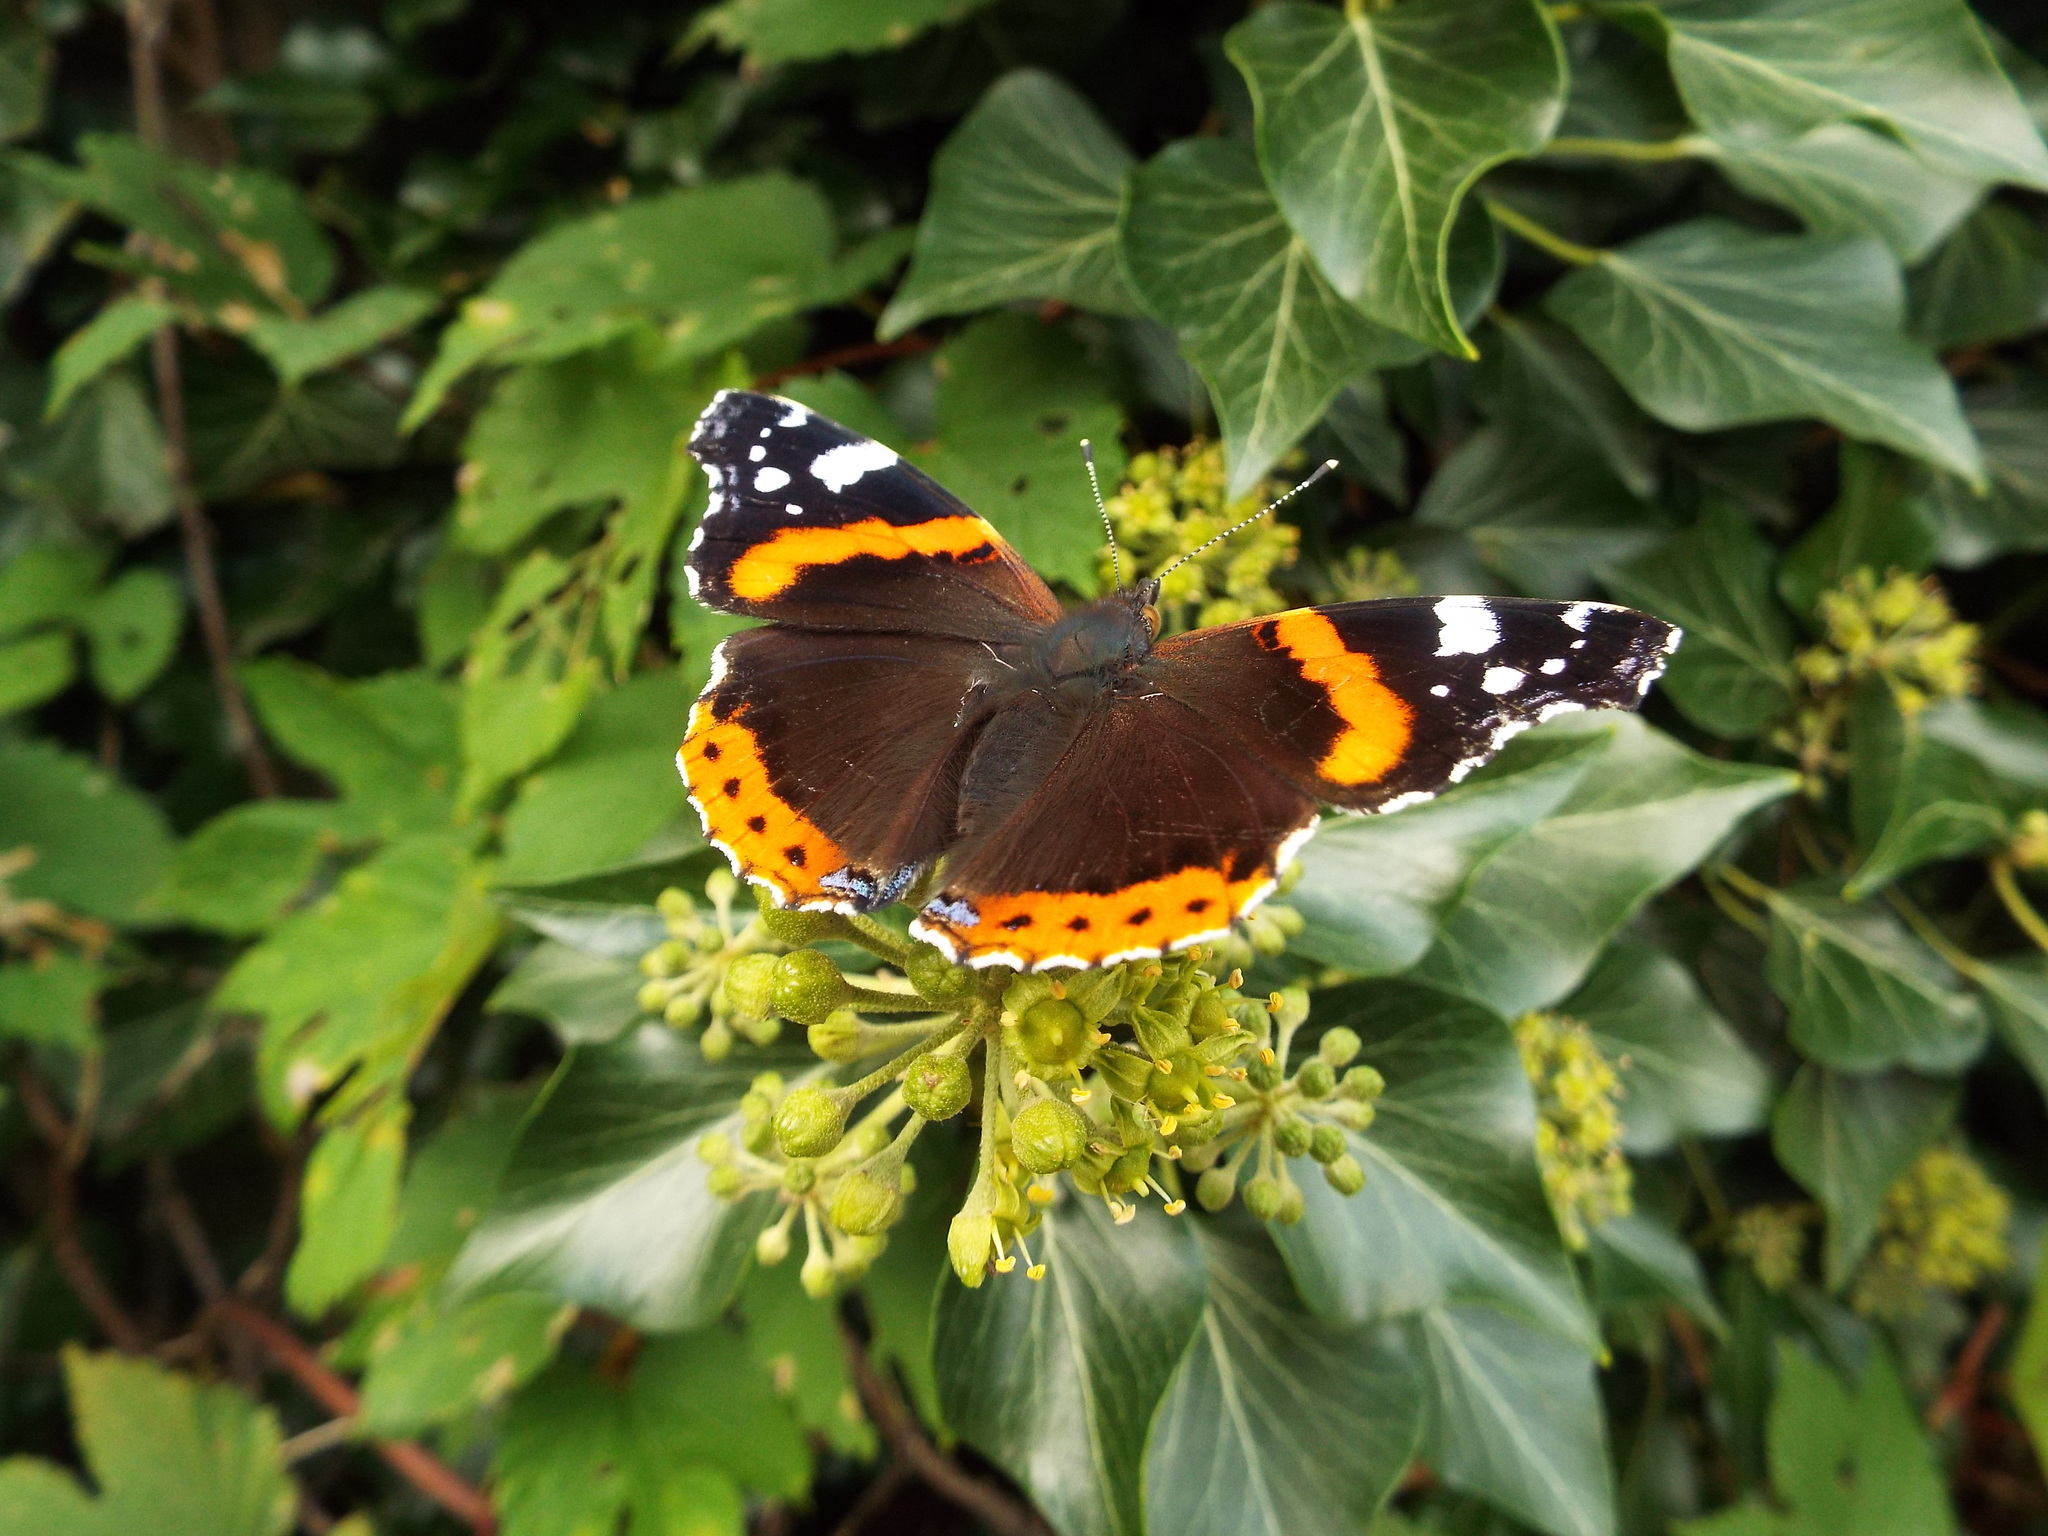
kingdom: Animalia
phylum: Arthropoda
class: Insecta
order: Lepidoptera
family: Nymphalidae
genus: Vanessa
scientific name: Vanessa atalanta
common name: Red admiral
